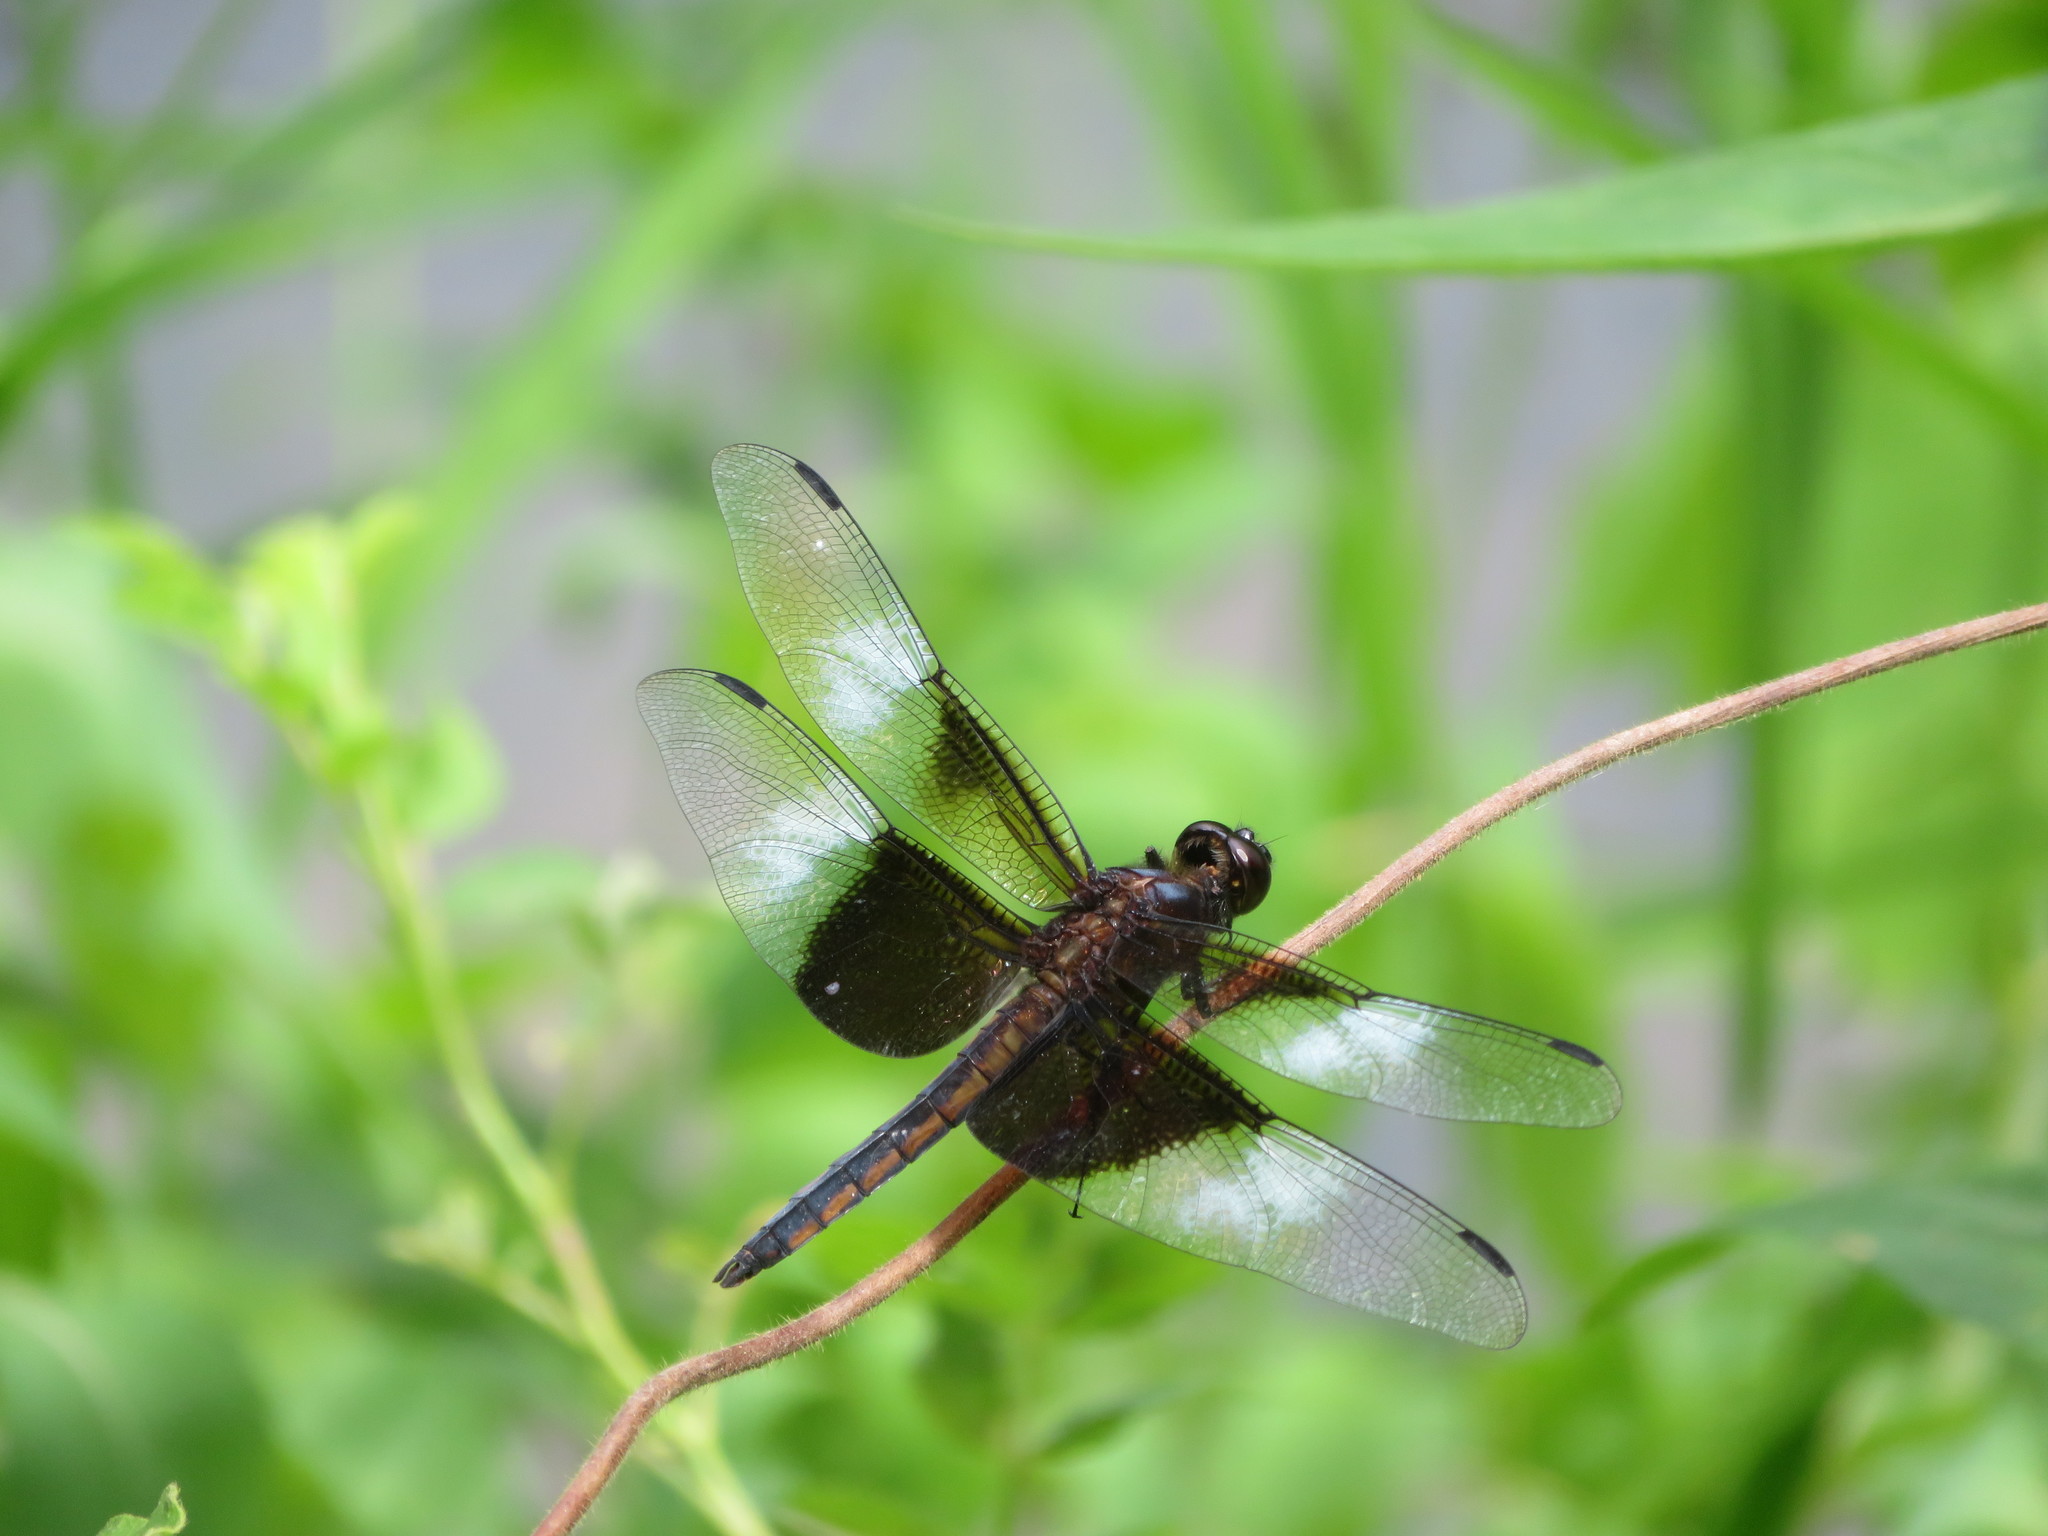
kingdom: Animalia
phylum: Arthropoda
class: Insecta
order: Odonata
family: Libellulidae
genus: Libellula
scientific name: Libellula luctuosa
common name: Widow skimmer
